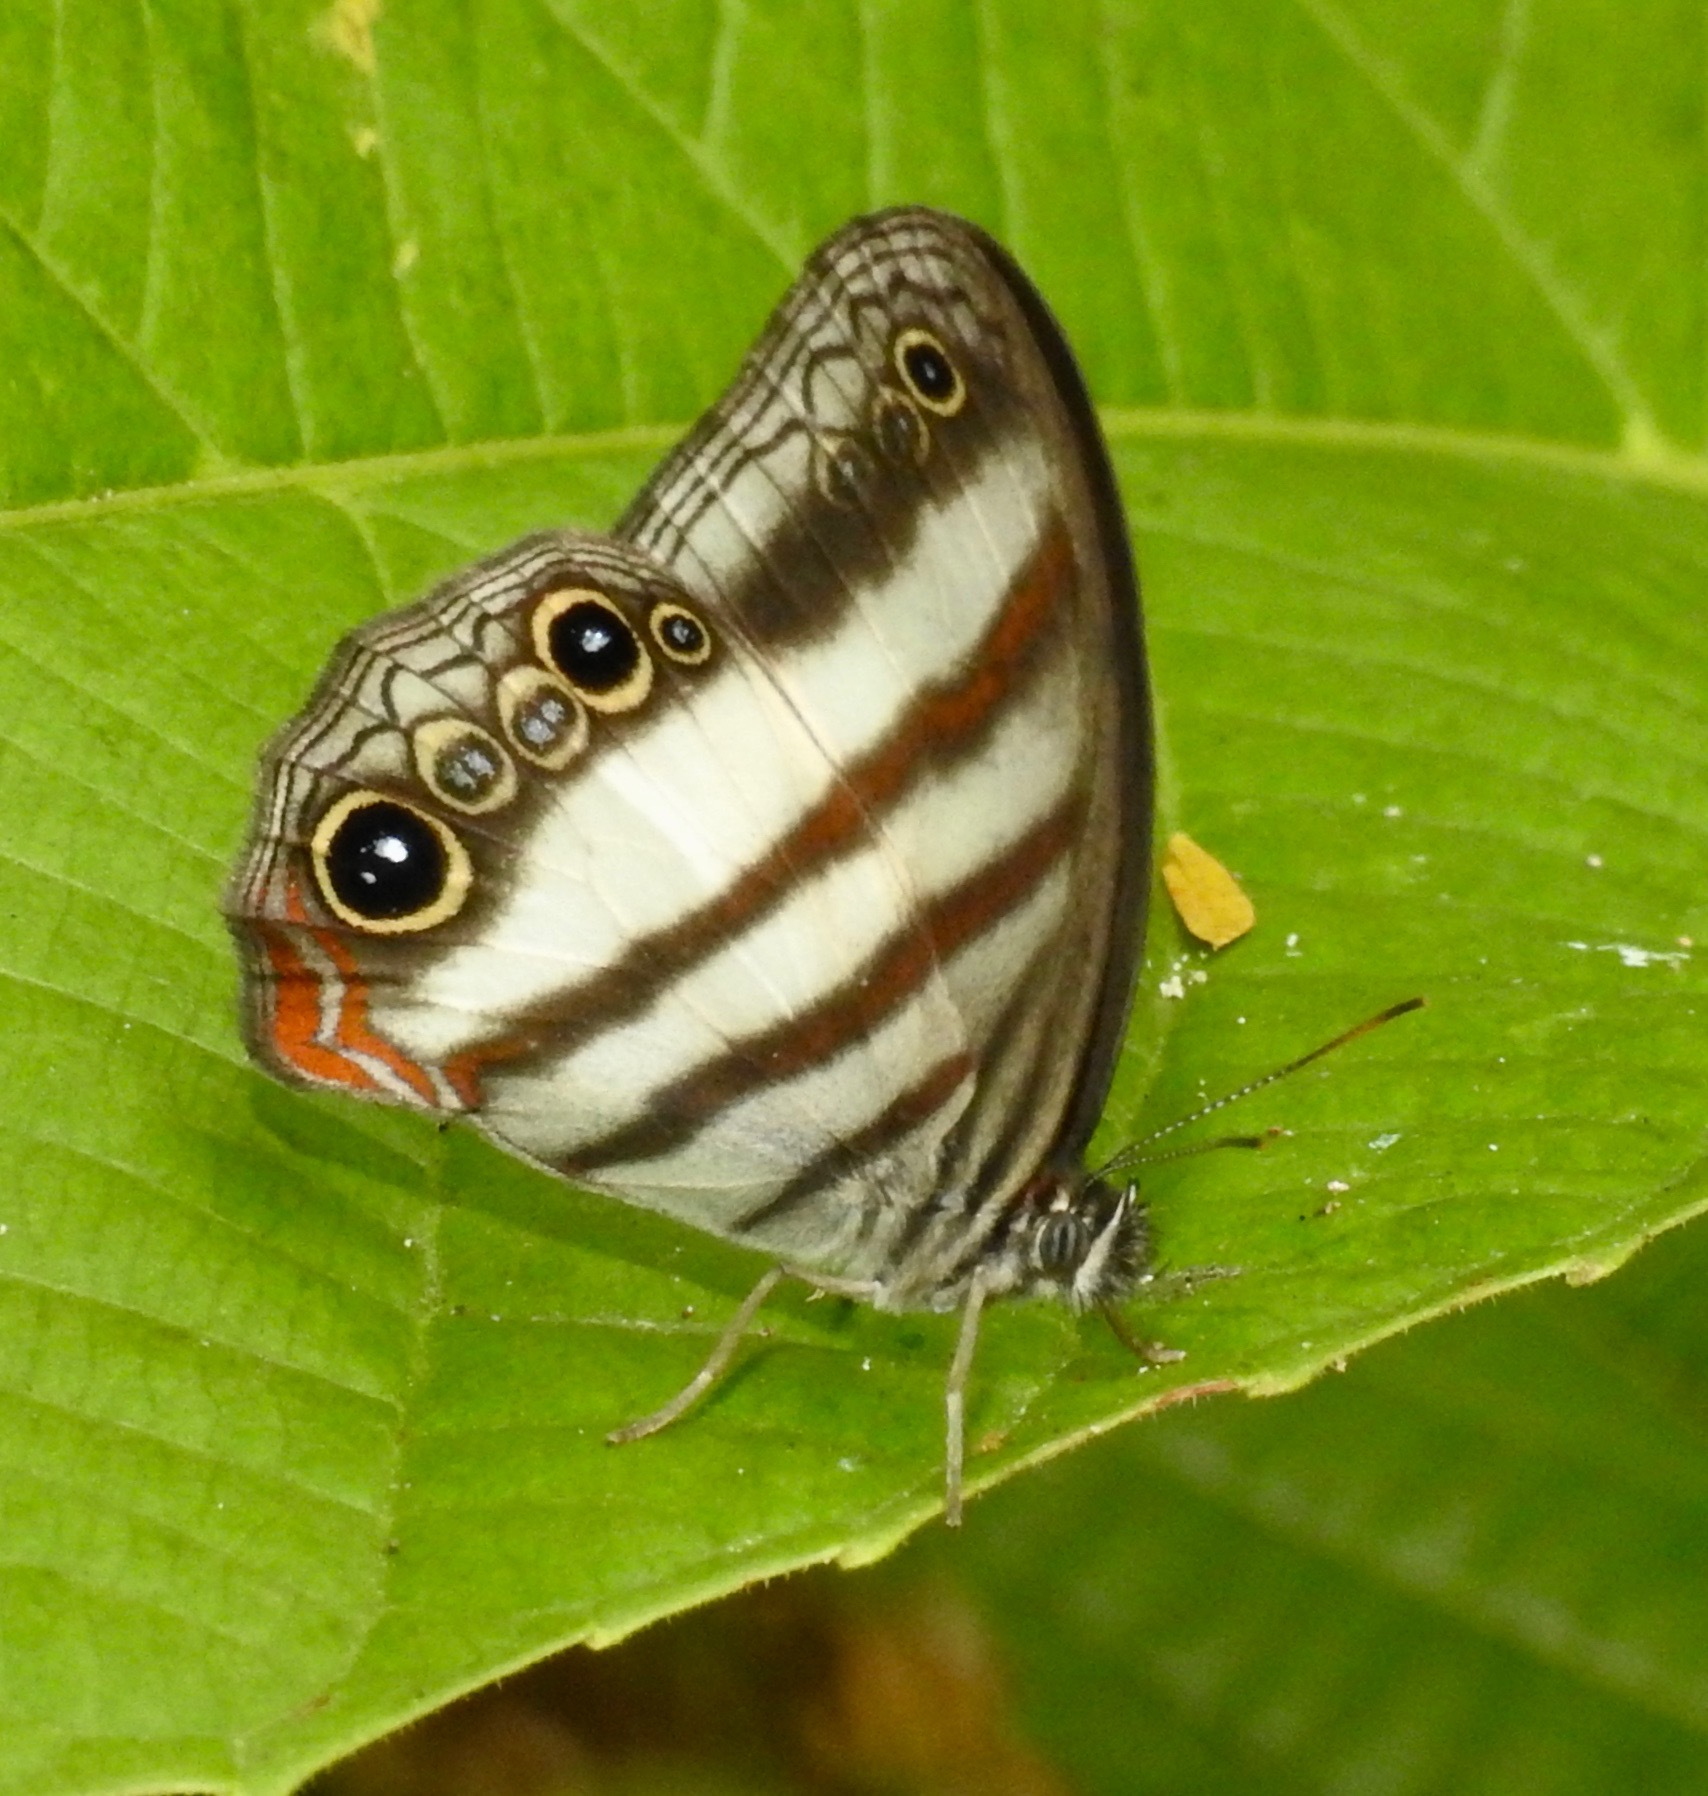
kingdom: Animalia
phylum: Arthropoda
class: Insecta
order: Lepidoptera
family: Nymphalidae
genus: Pareuptychia
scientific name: Pareuptychia metaleuca
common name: White-banded satyr
